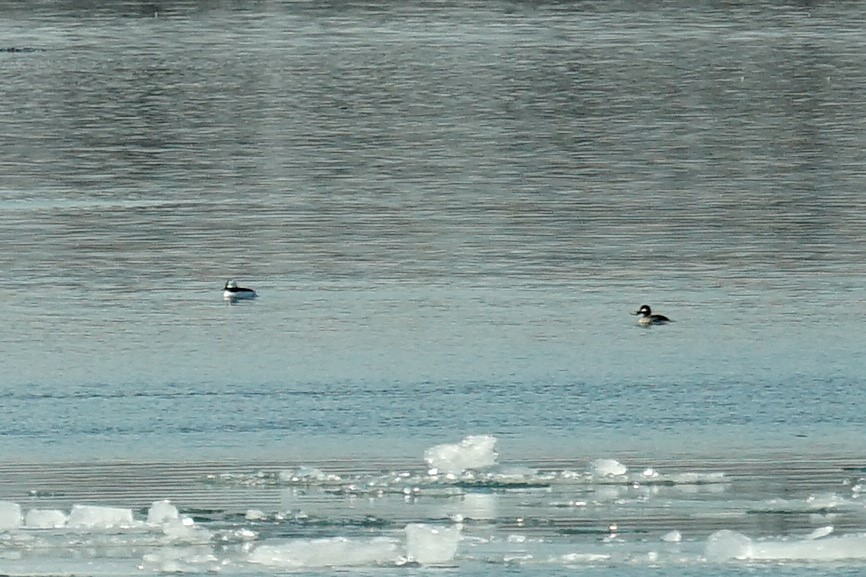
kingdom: Animalia
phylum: Chordata
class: Aves
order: Anseriformes
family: Anatidae
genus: Bucephala
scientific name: Bucephala albeola
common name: Bufflehead
